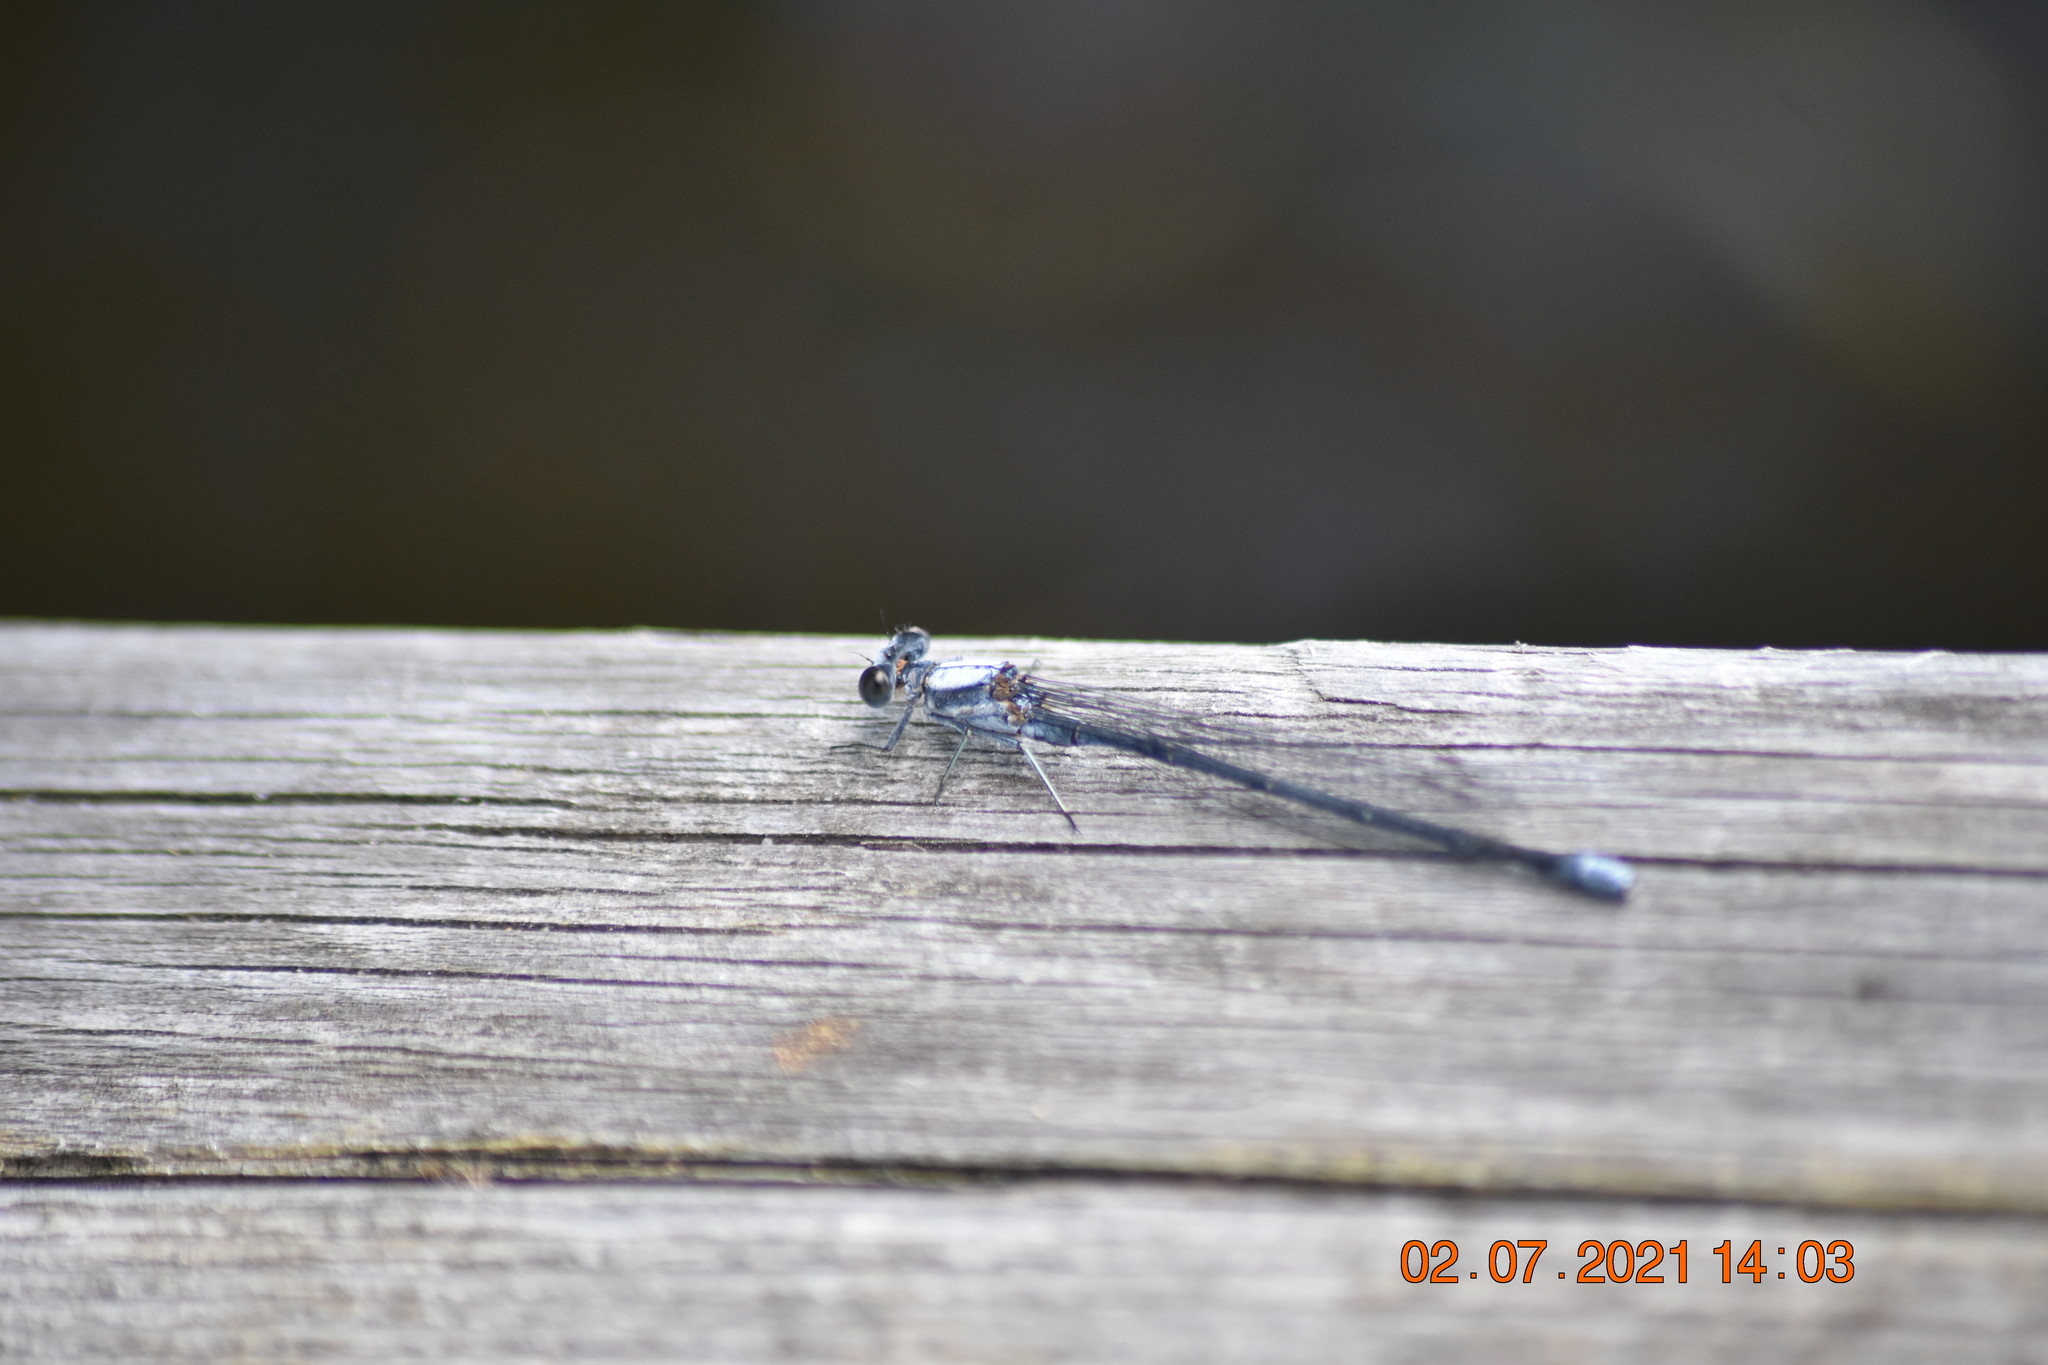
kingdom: Animalia
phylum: Arthropoda
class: Insecta
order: Odonata
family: Coenagrionidae
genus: Argia
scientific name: Argia moesta
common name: Powdered dancer
